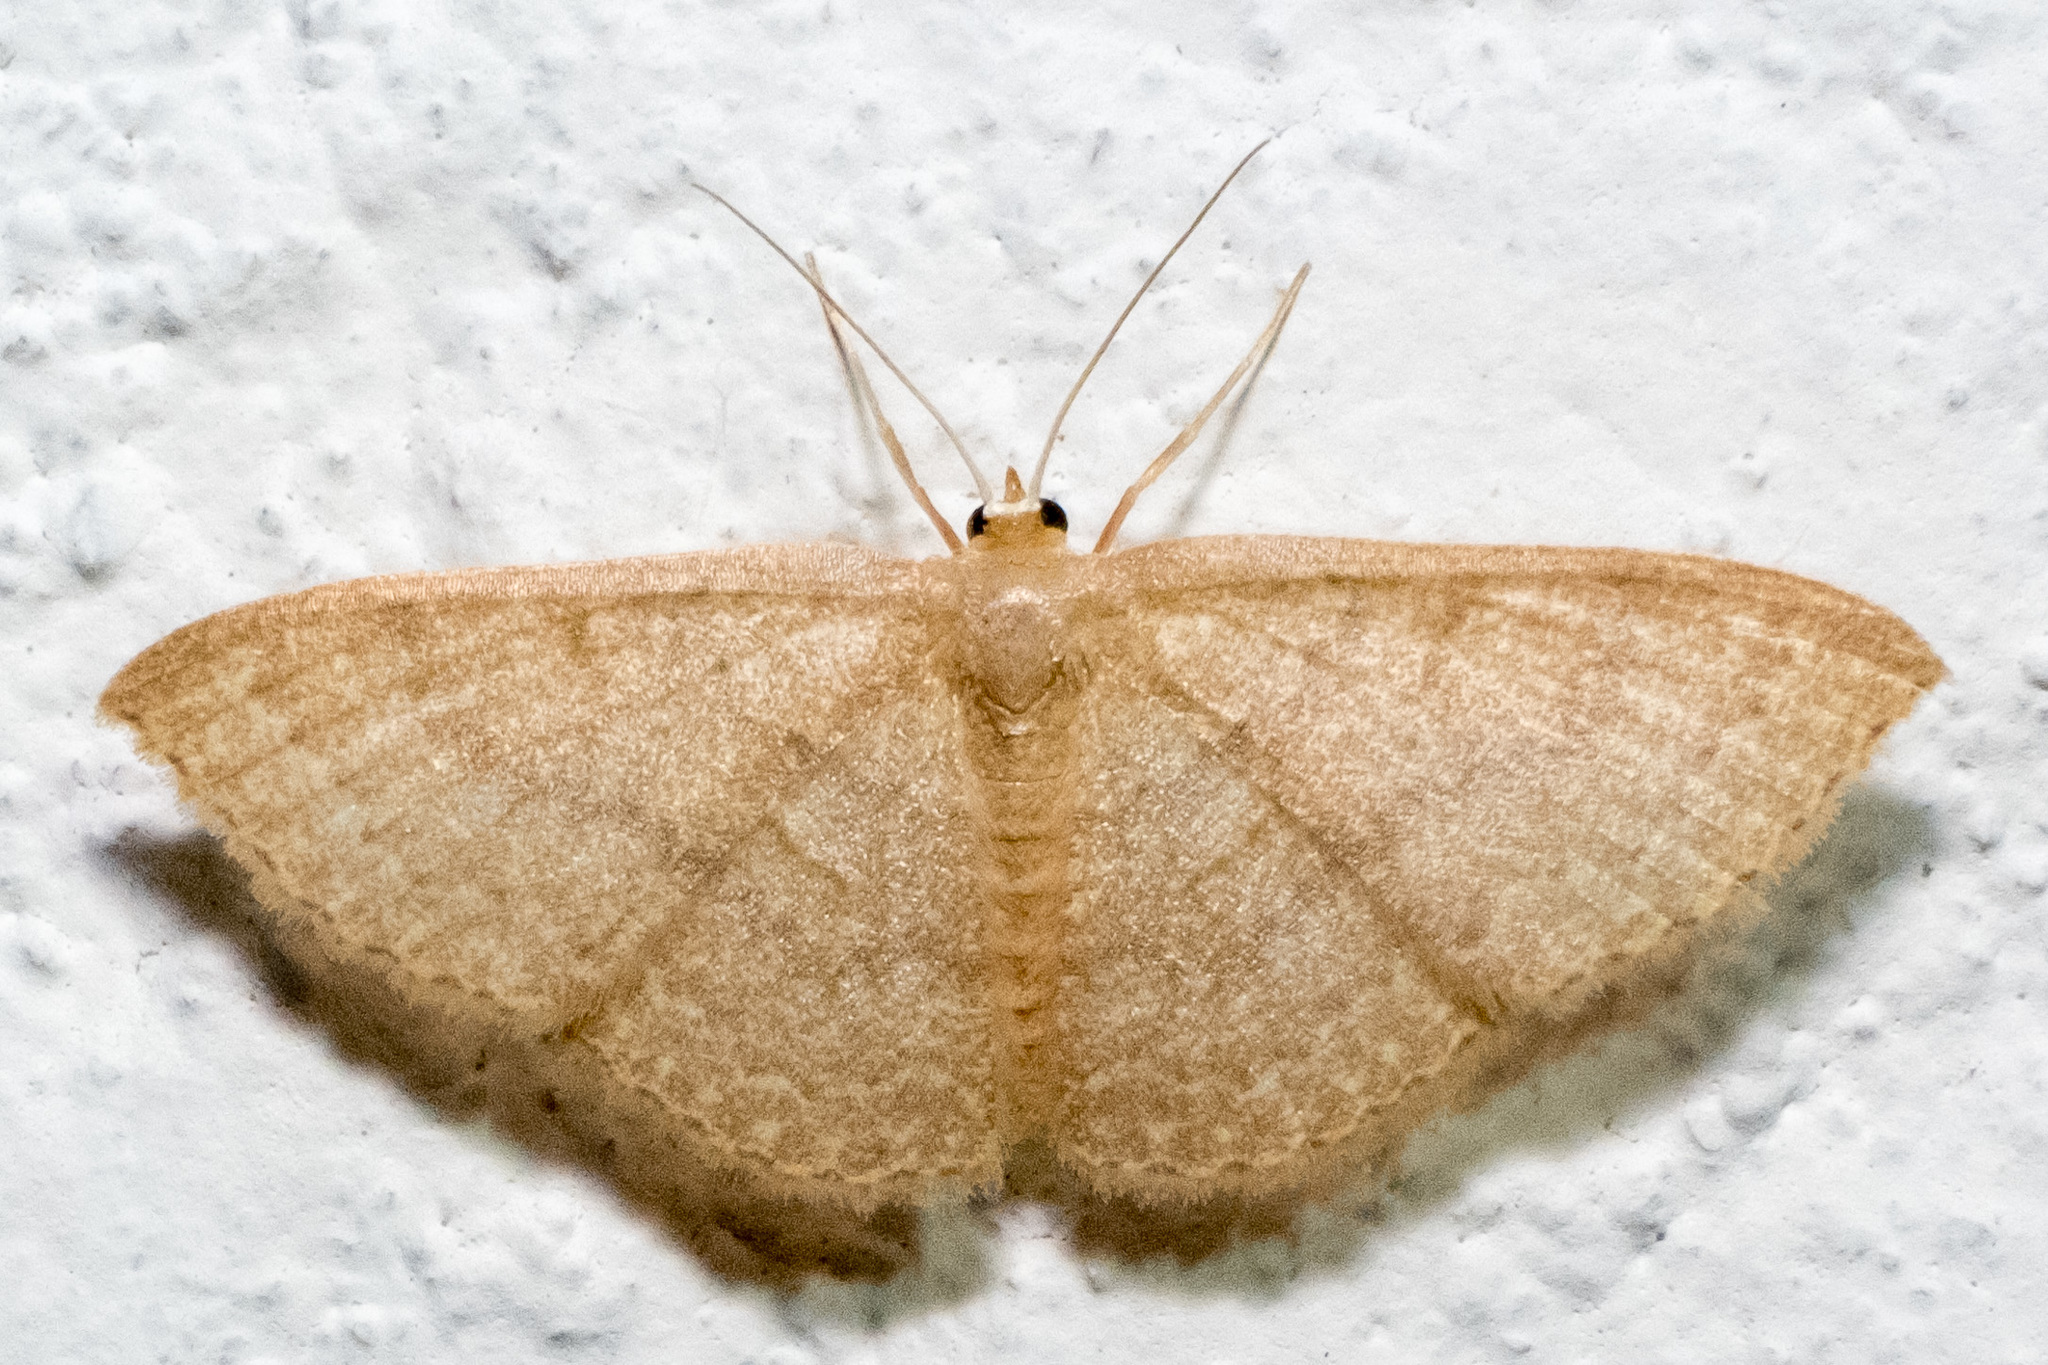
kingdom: Animalia
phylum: Arthropoda
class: Insecta
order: Lepidoptera
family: Geometridae
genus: Pleuroprucha
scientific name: Pleuroprucha insulsaria
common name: Common tan wave
